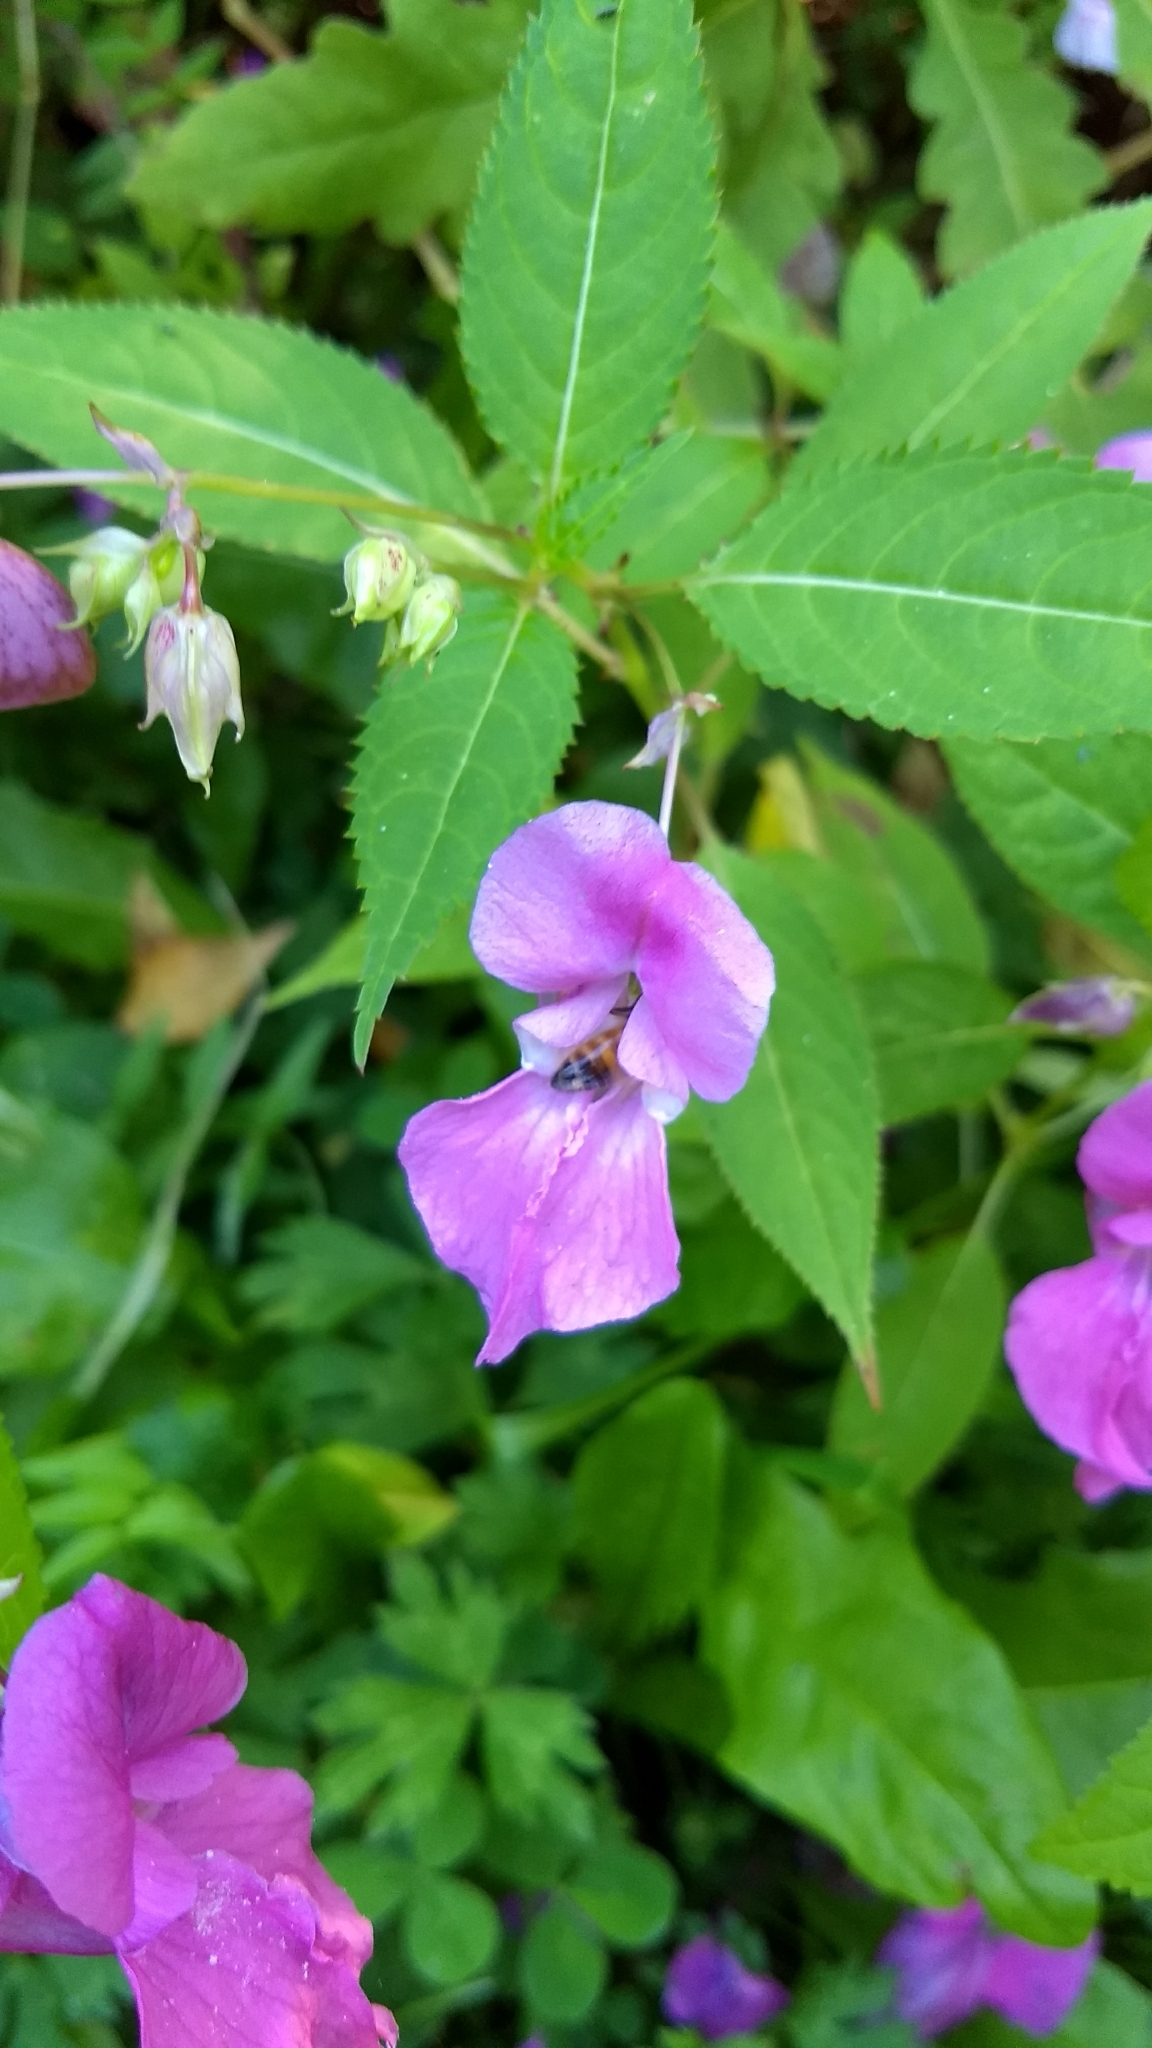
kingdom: Plantae
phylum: Tracheophyta
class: Magnoliopsida
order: Ericales
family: Balsaminaceae
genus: Impatiens
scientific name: Impatiens glandulifera
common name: Himalayan balsam
